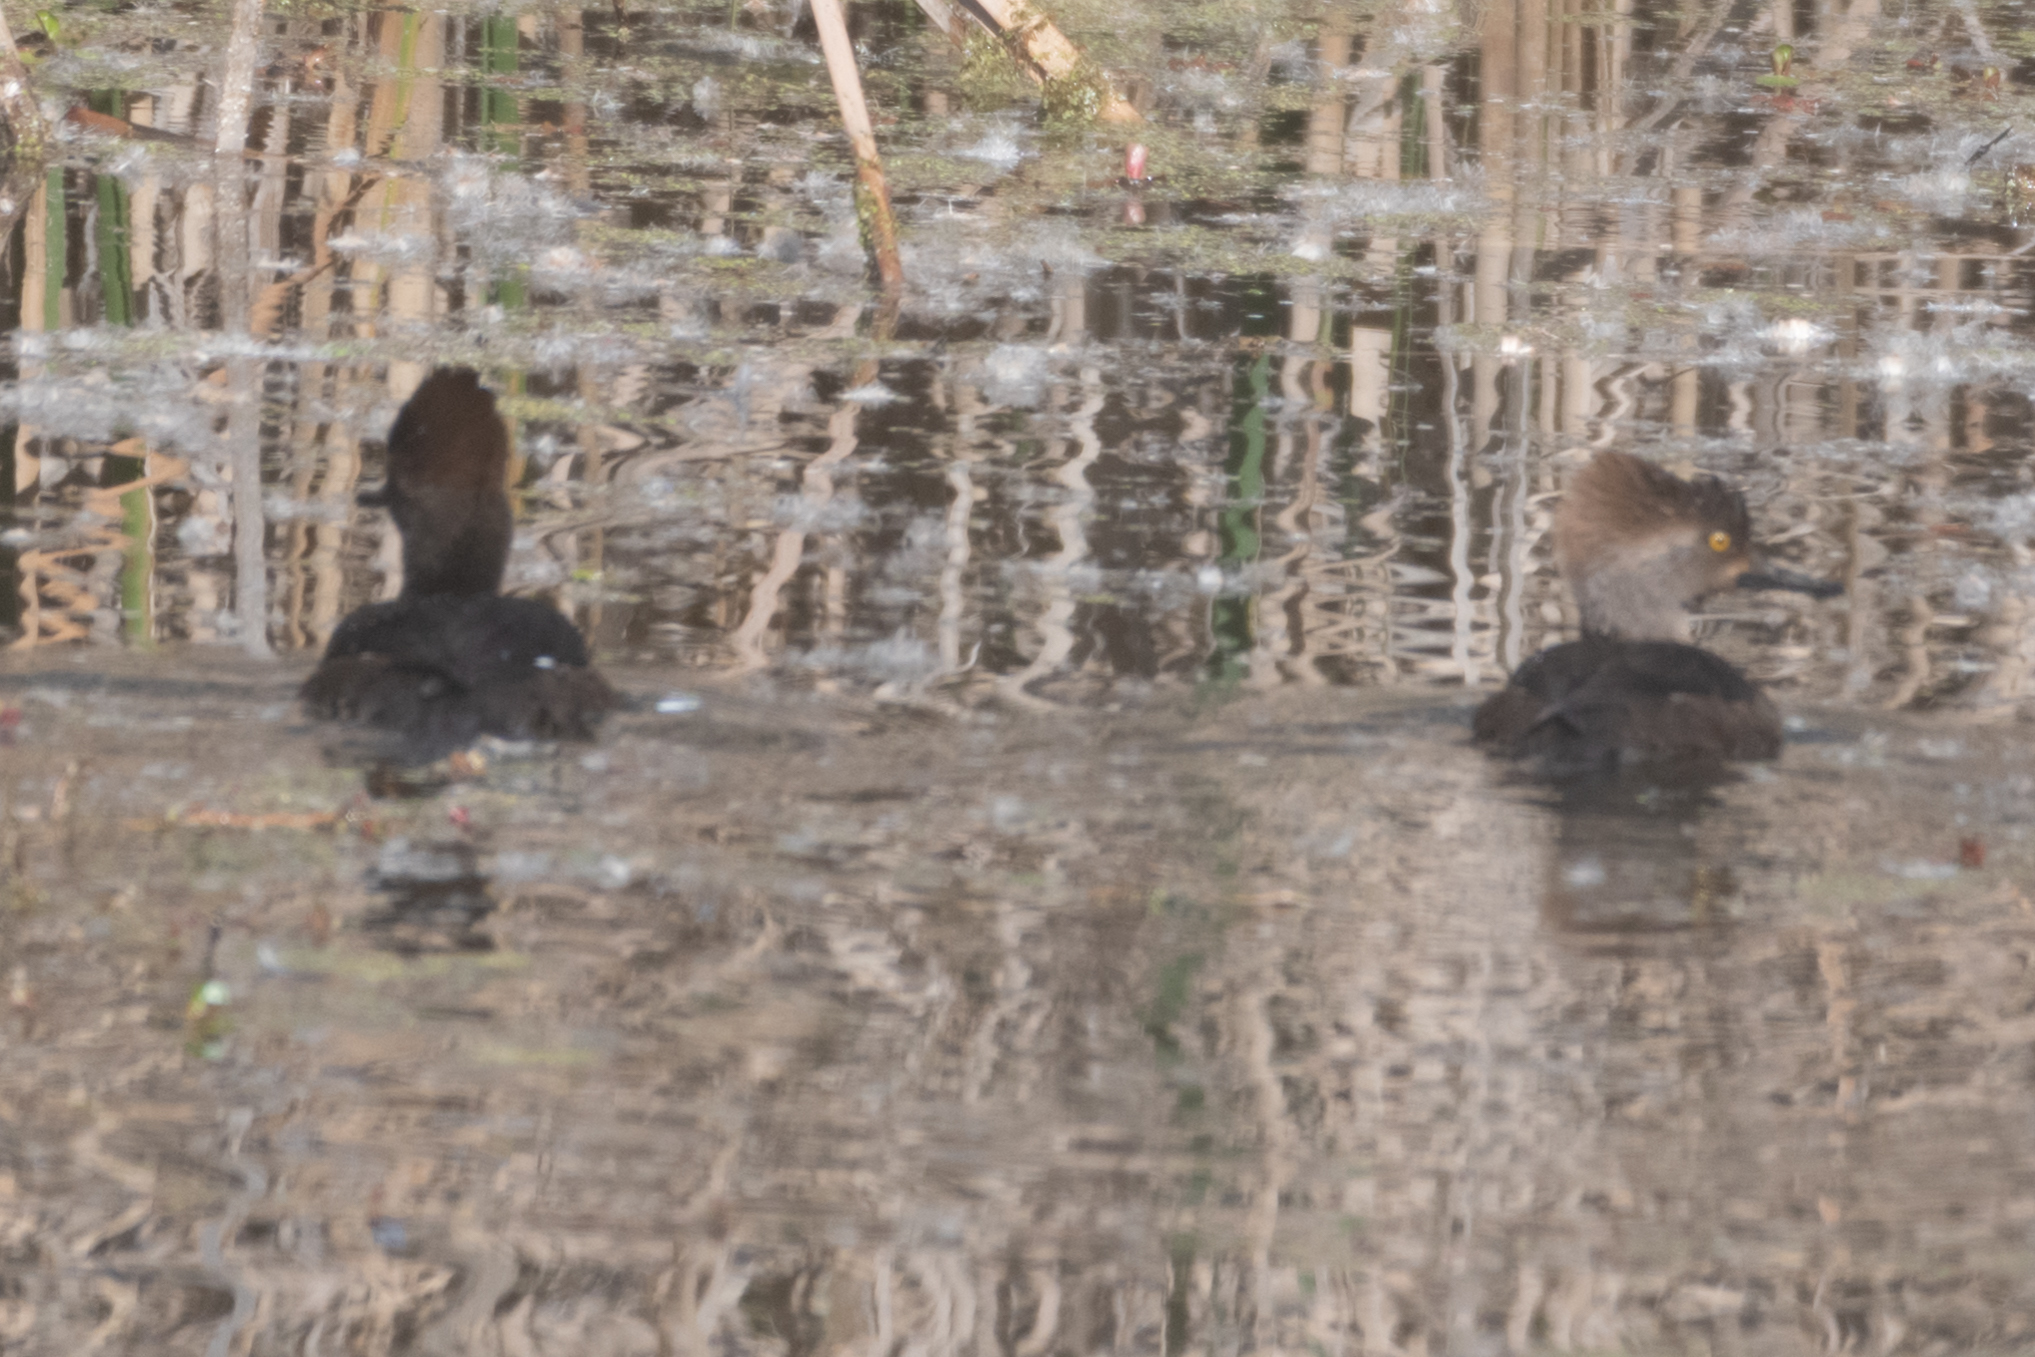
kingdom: Animalia
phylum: Chordata
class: Aves
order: Anseriformes
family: Anatidae
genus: Lophodytes
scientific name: Lophodytes cucullatus
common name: Hooded merganser
